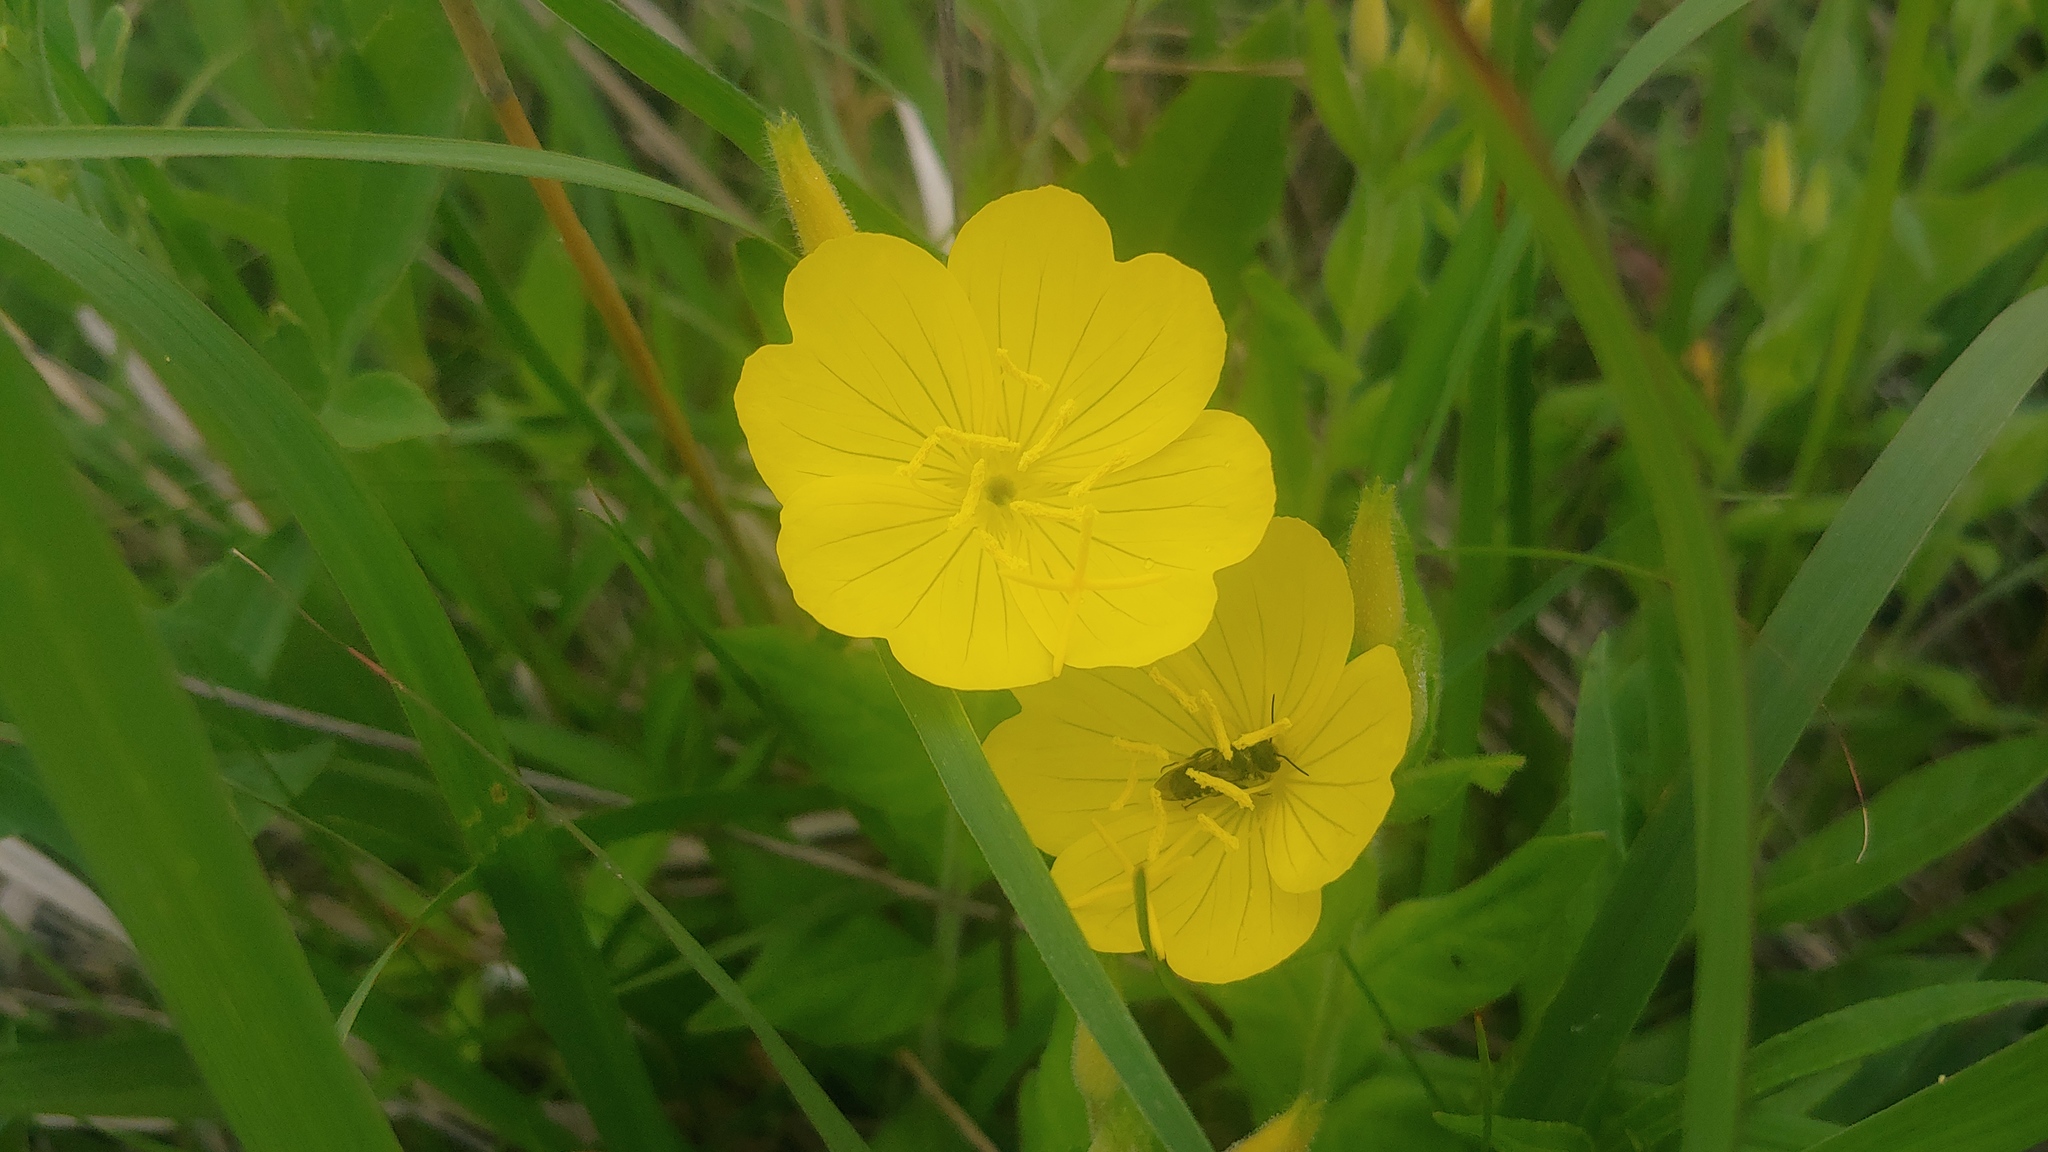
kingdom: Plantae
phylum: Tracheophyta
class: Magnoliopsida
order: Myrtales
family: Onagraceae
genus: Oenothera
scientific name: Oenothera pilosella
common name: Finely-pilose evening-primrose
